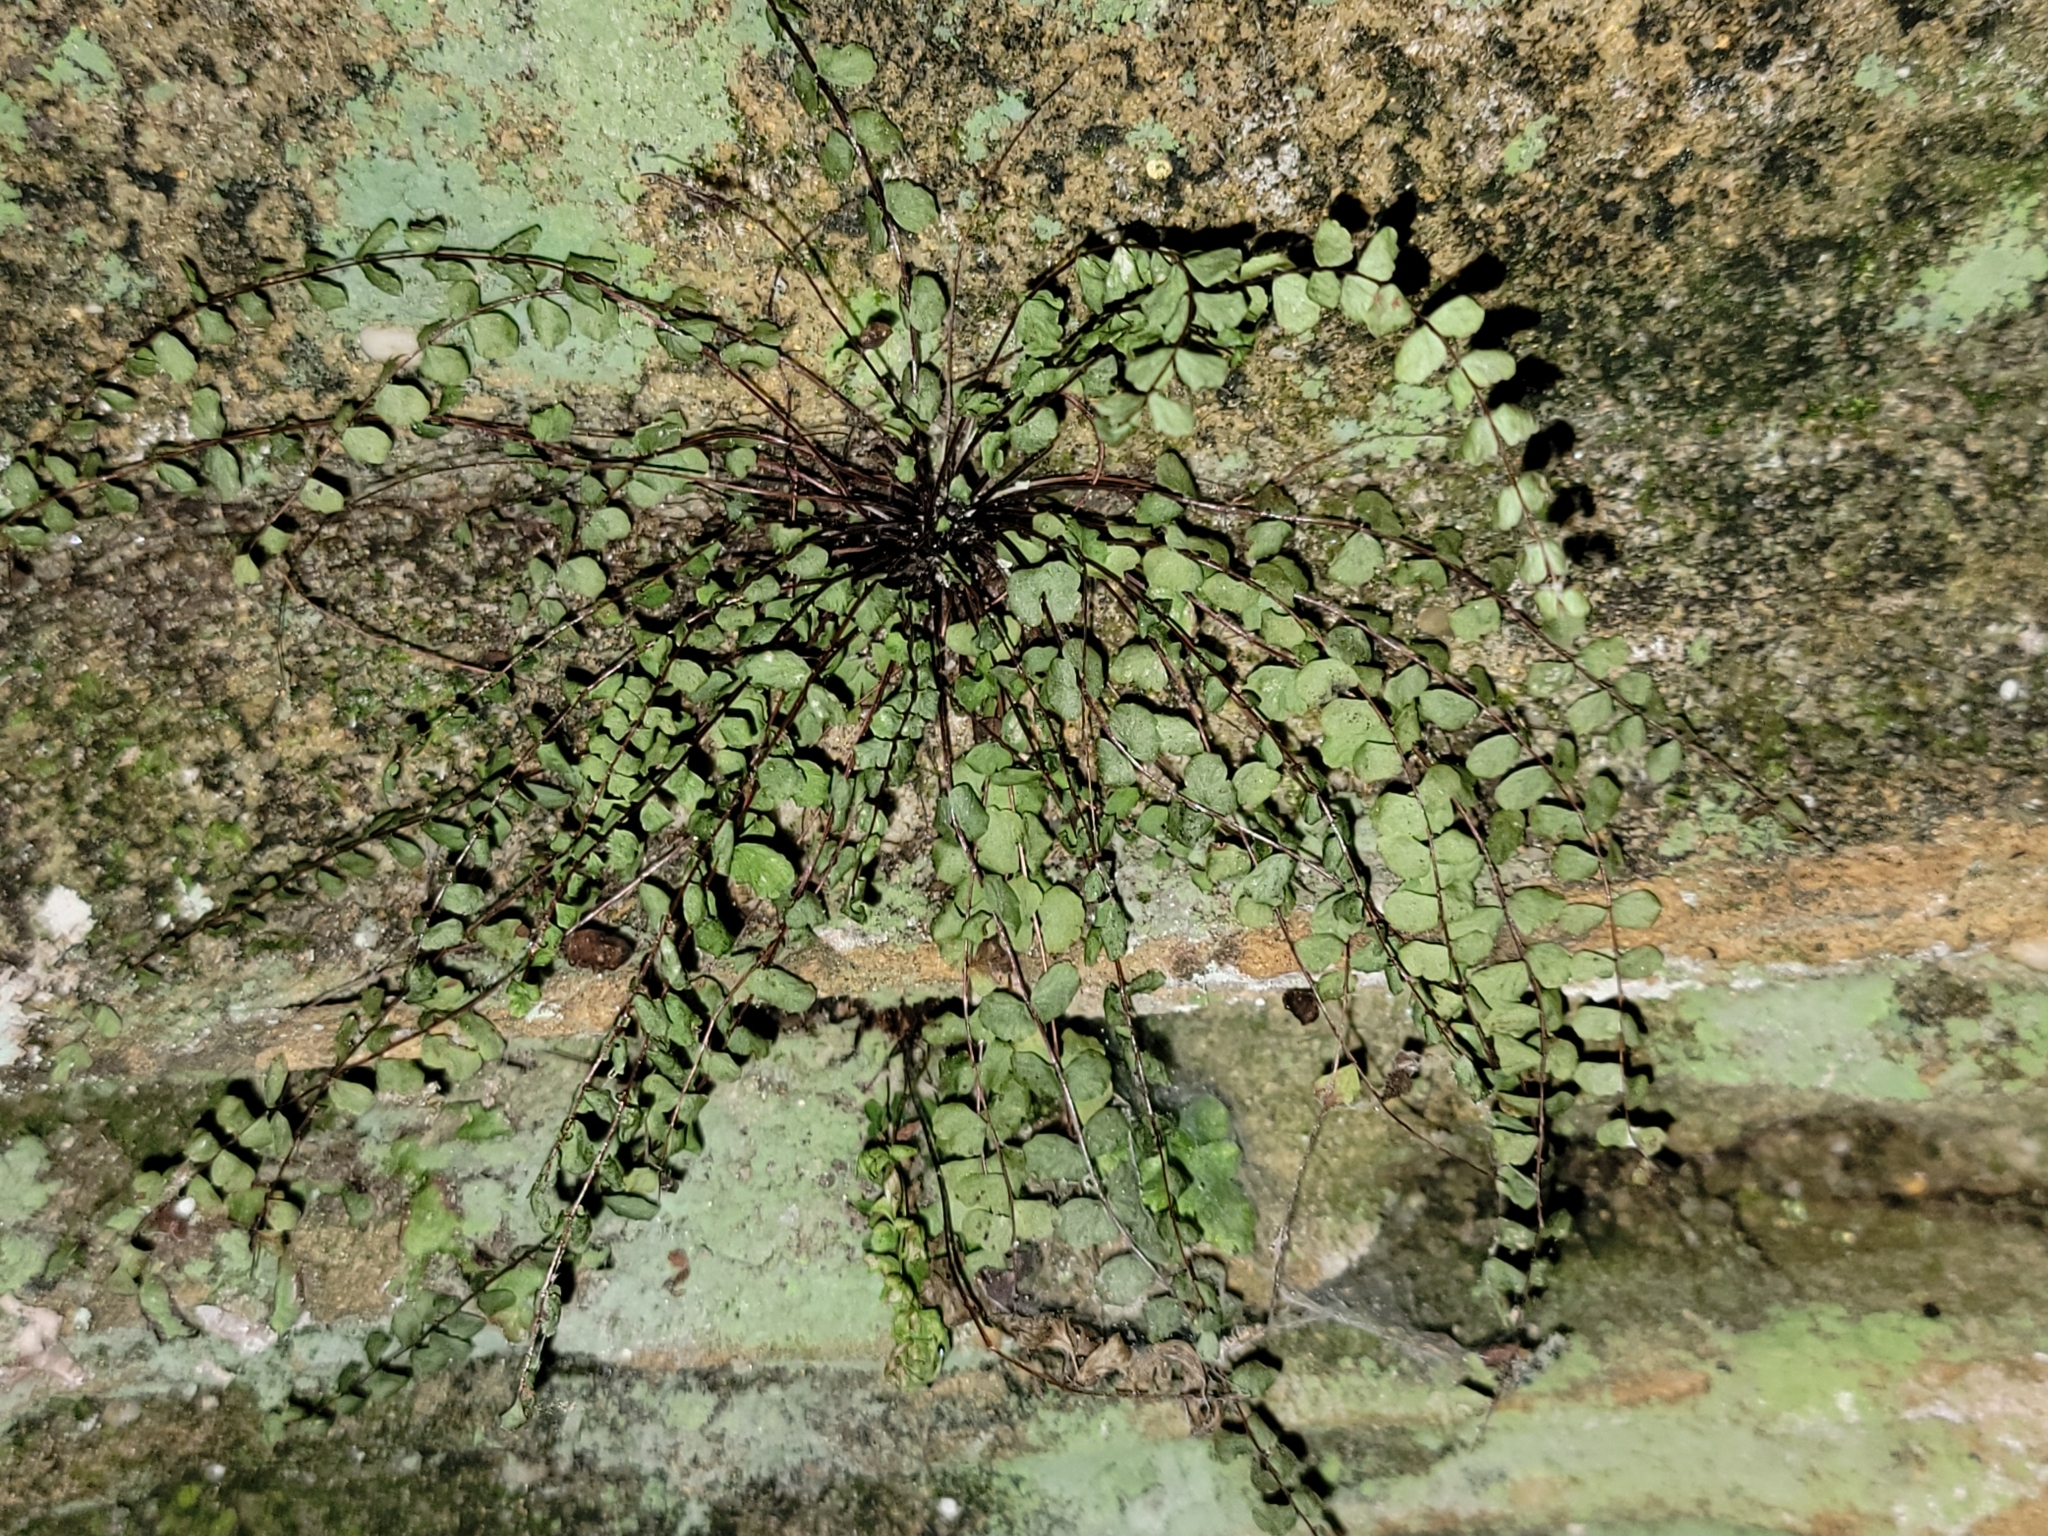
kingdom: Plantae
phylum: Tracheophyta
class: Polypodiopsida
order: Polypodiales
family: Aspleniaceae
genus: Asplenium
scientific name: Asplenium trichomanes
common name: Maidenhair spleenwort
